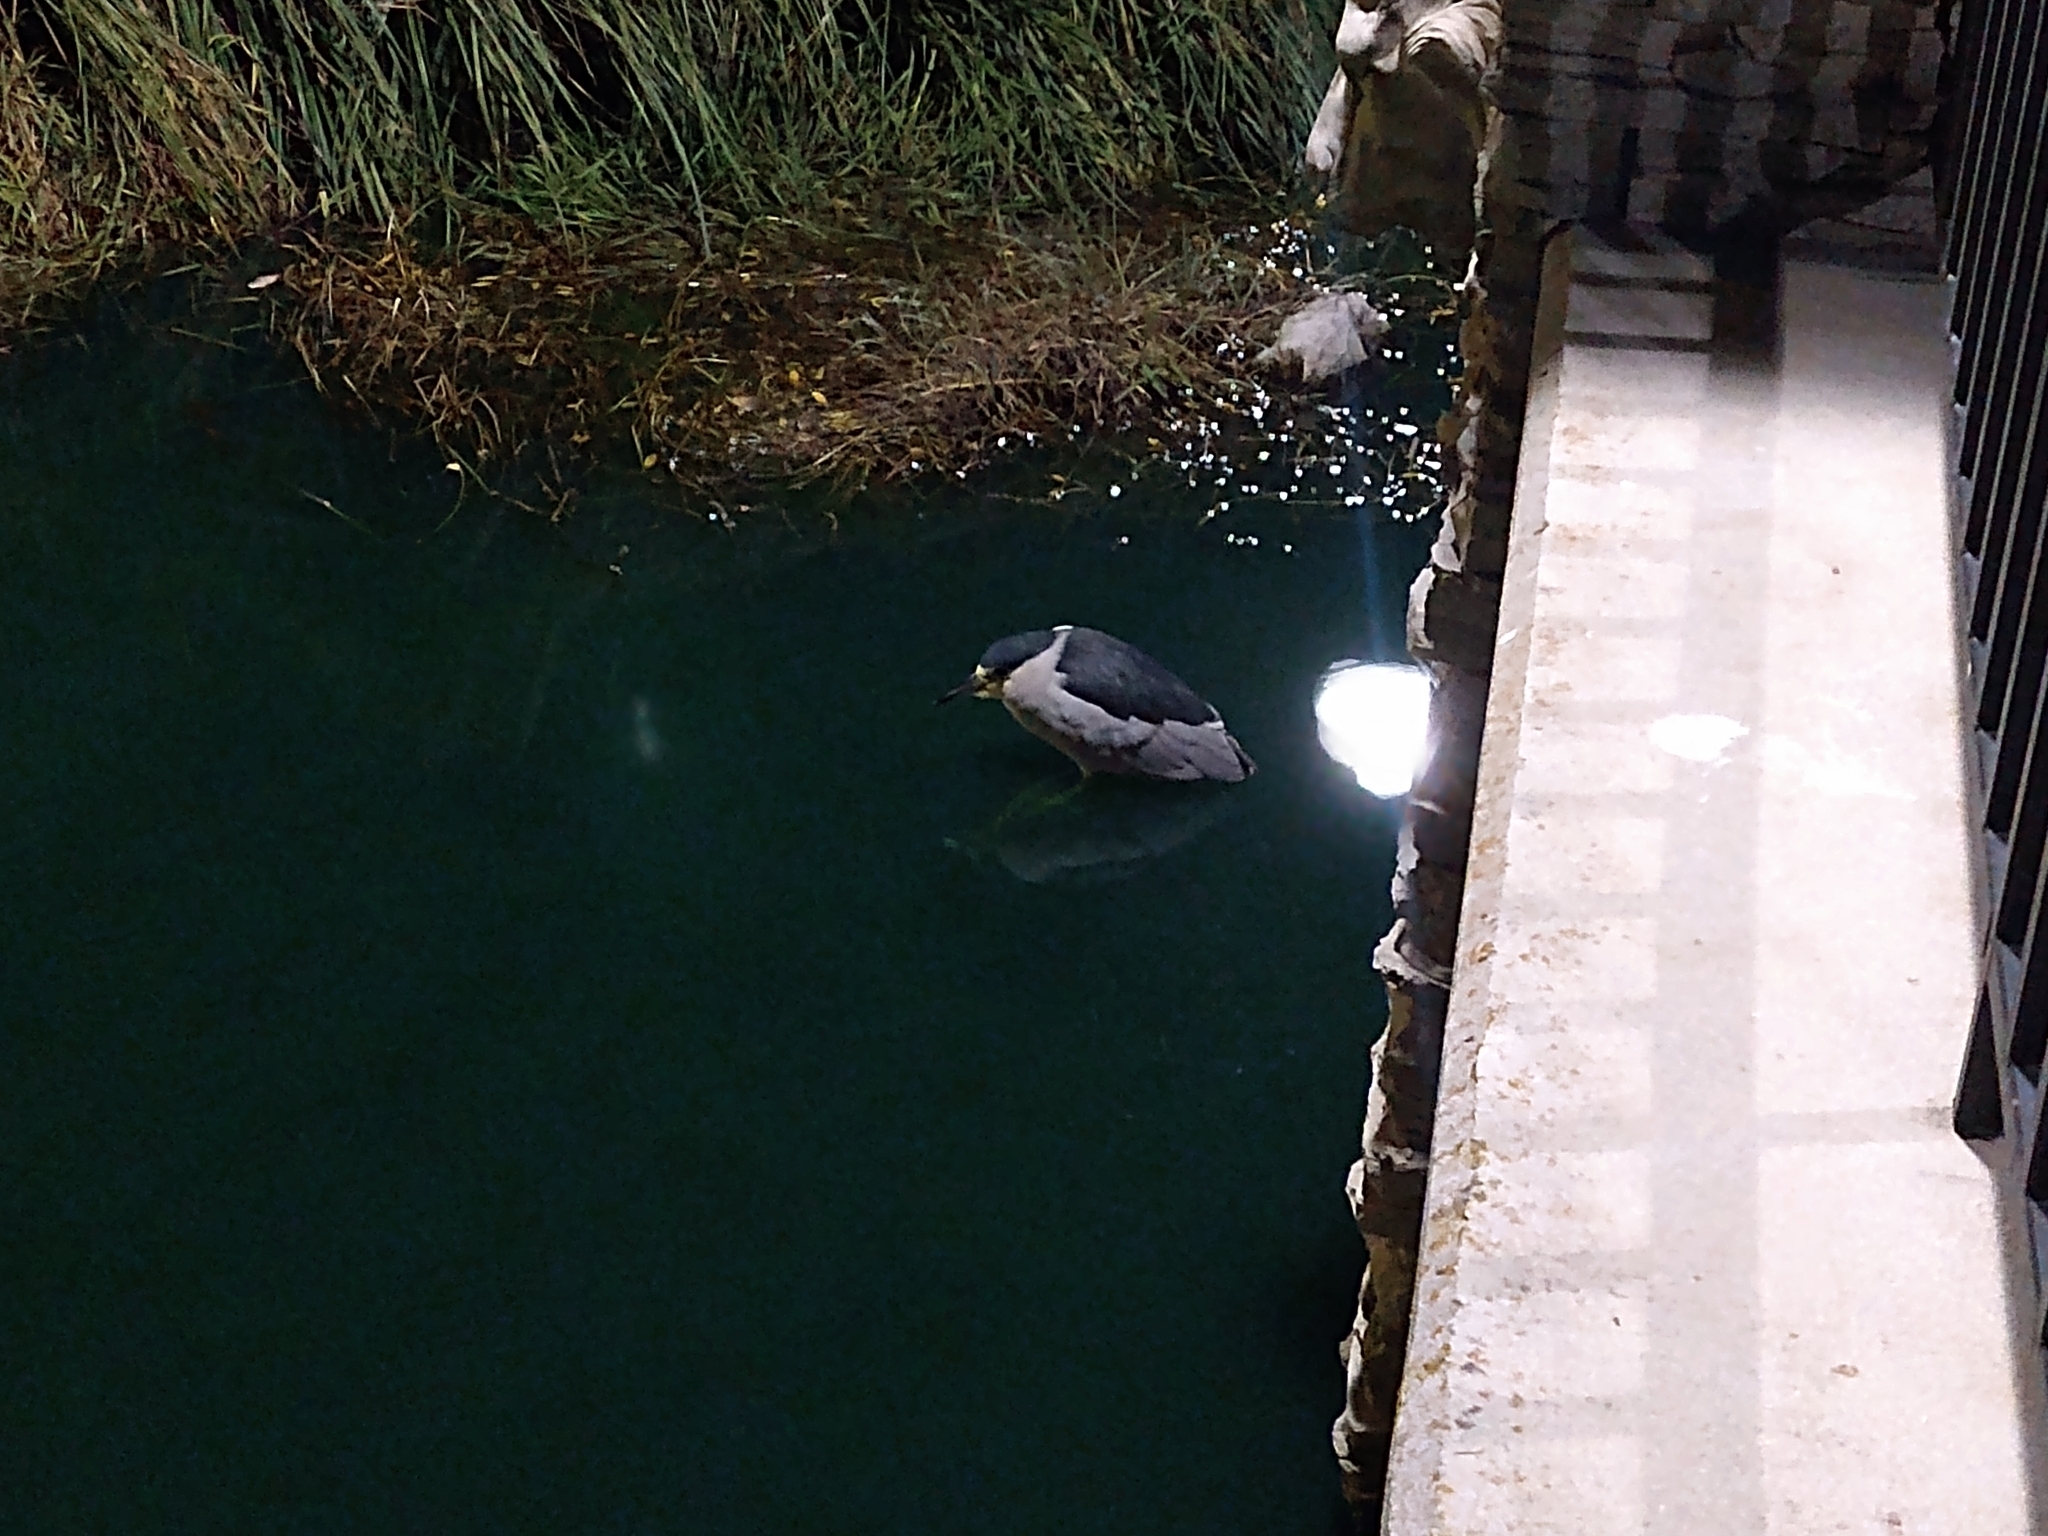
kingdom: Animalia
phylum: Chordata
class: Aves
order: Pelecaniformes
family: Ardeidae
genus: Nycticorax
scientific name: Nycticorax nycticorax
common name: Black-crowned night heron
